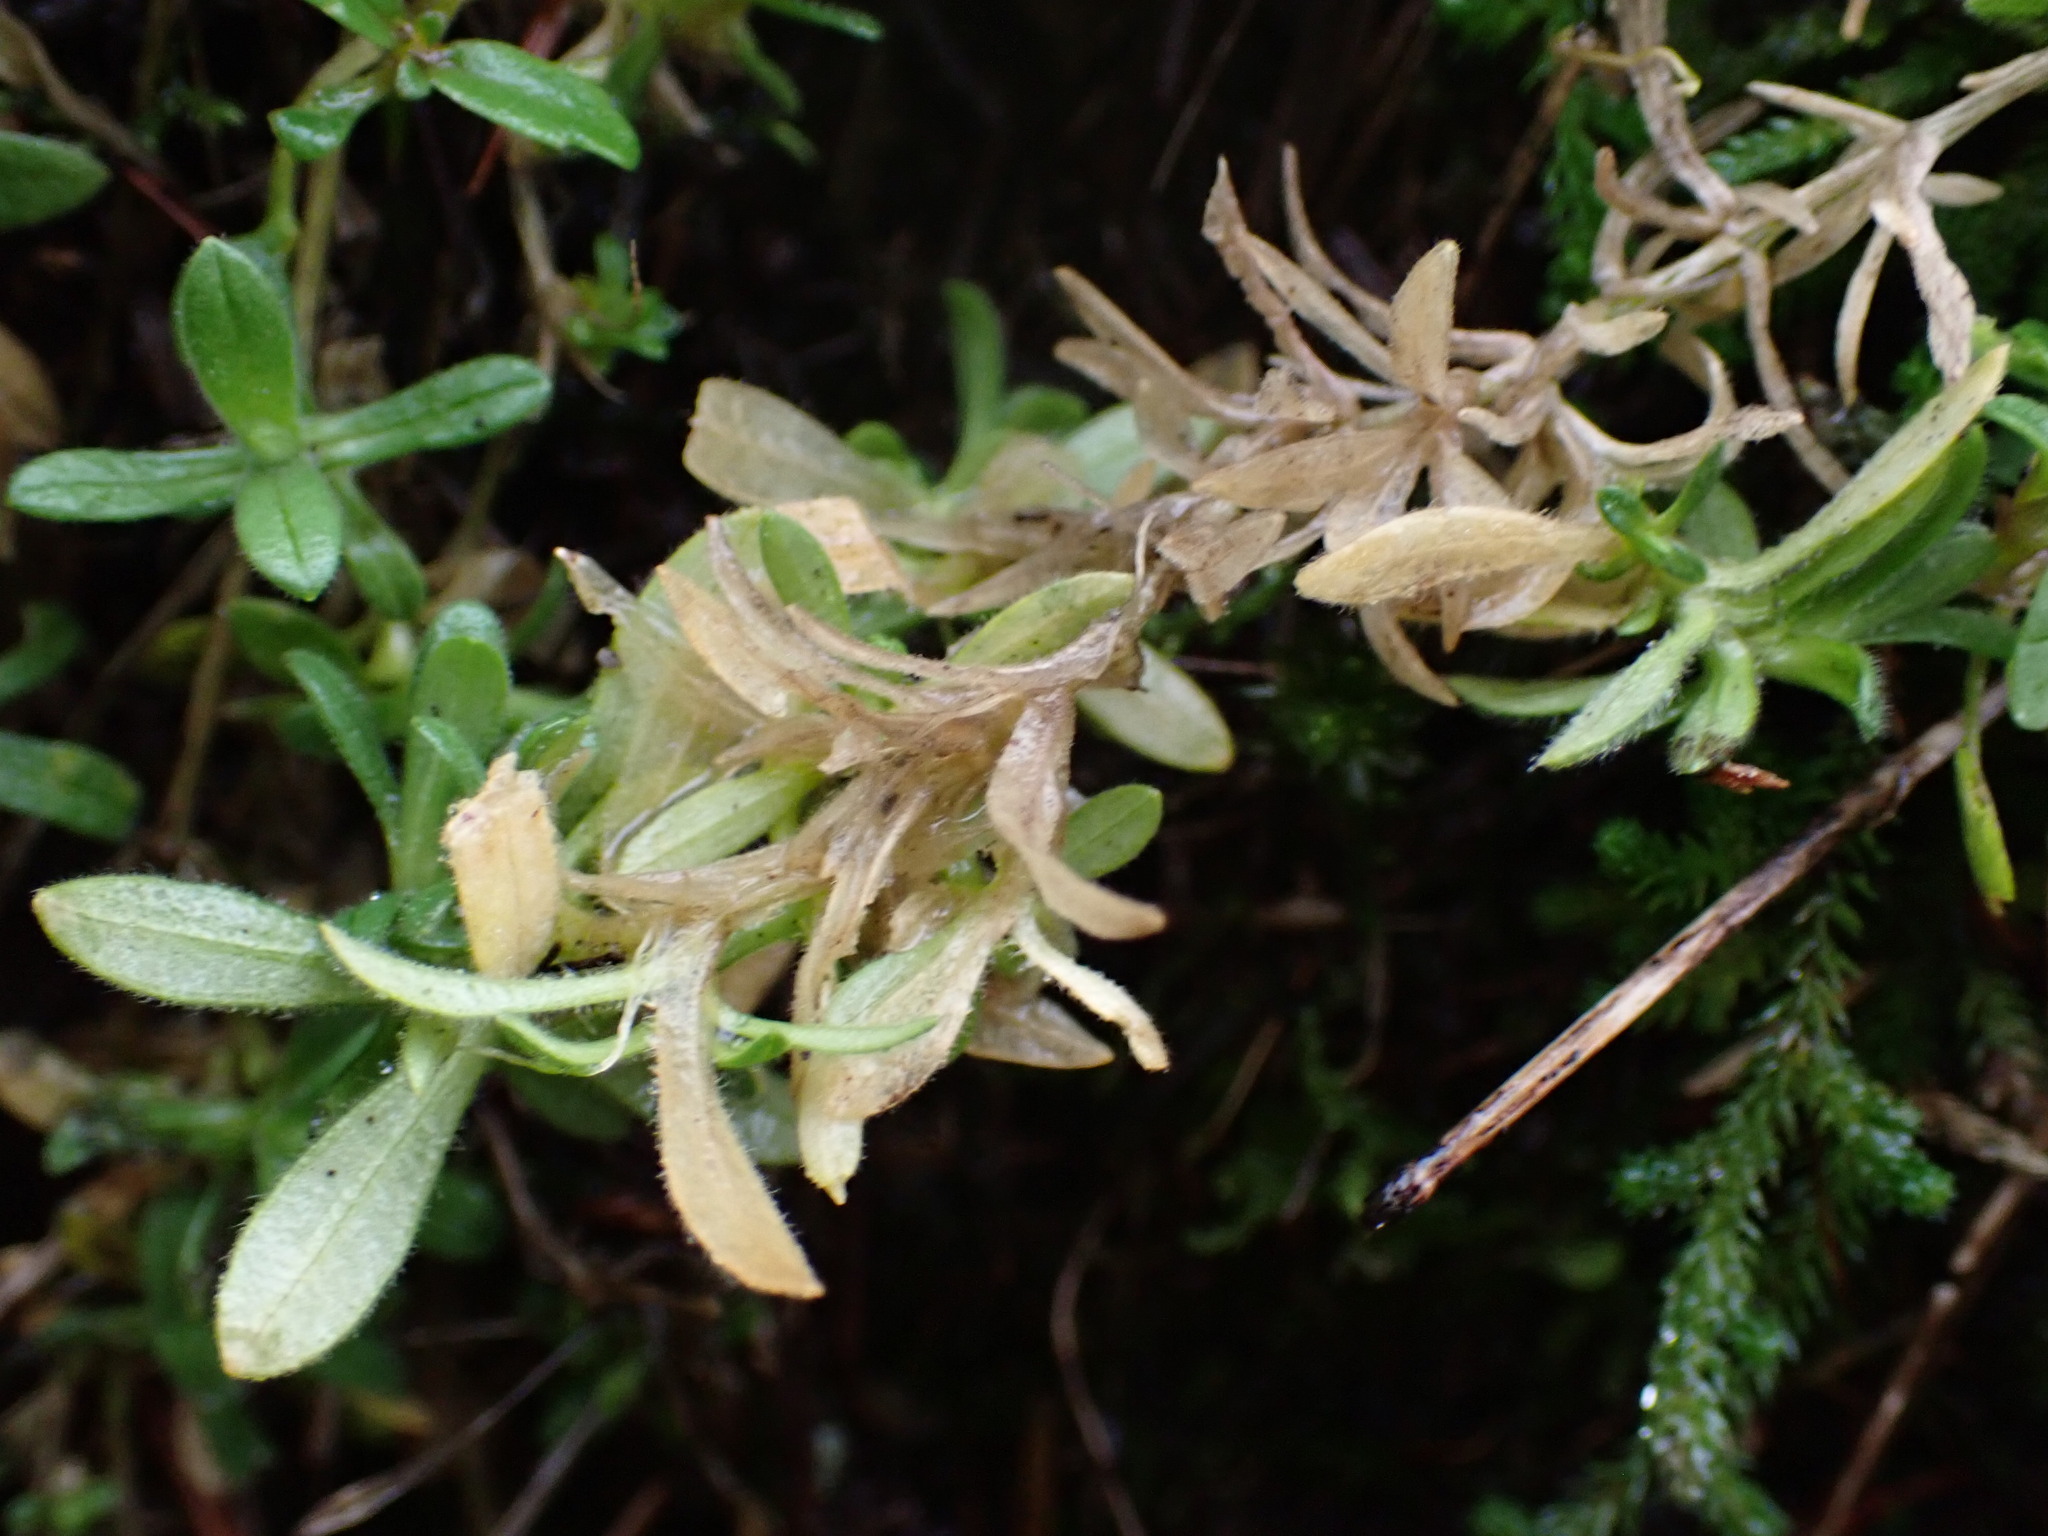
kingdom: Plantae
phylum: Tracheophyta
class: Magnoliopsida
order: Caryophyllales
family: Caryophyllaceae
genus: Cerastium
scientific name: Cerastium arvense
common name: Field mouse-ear
